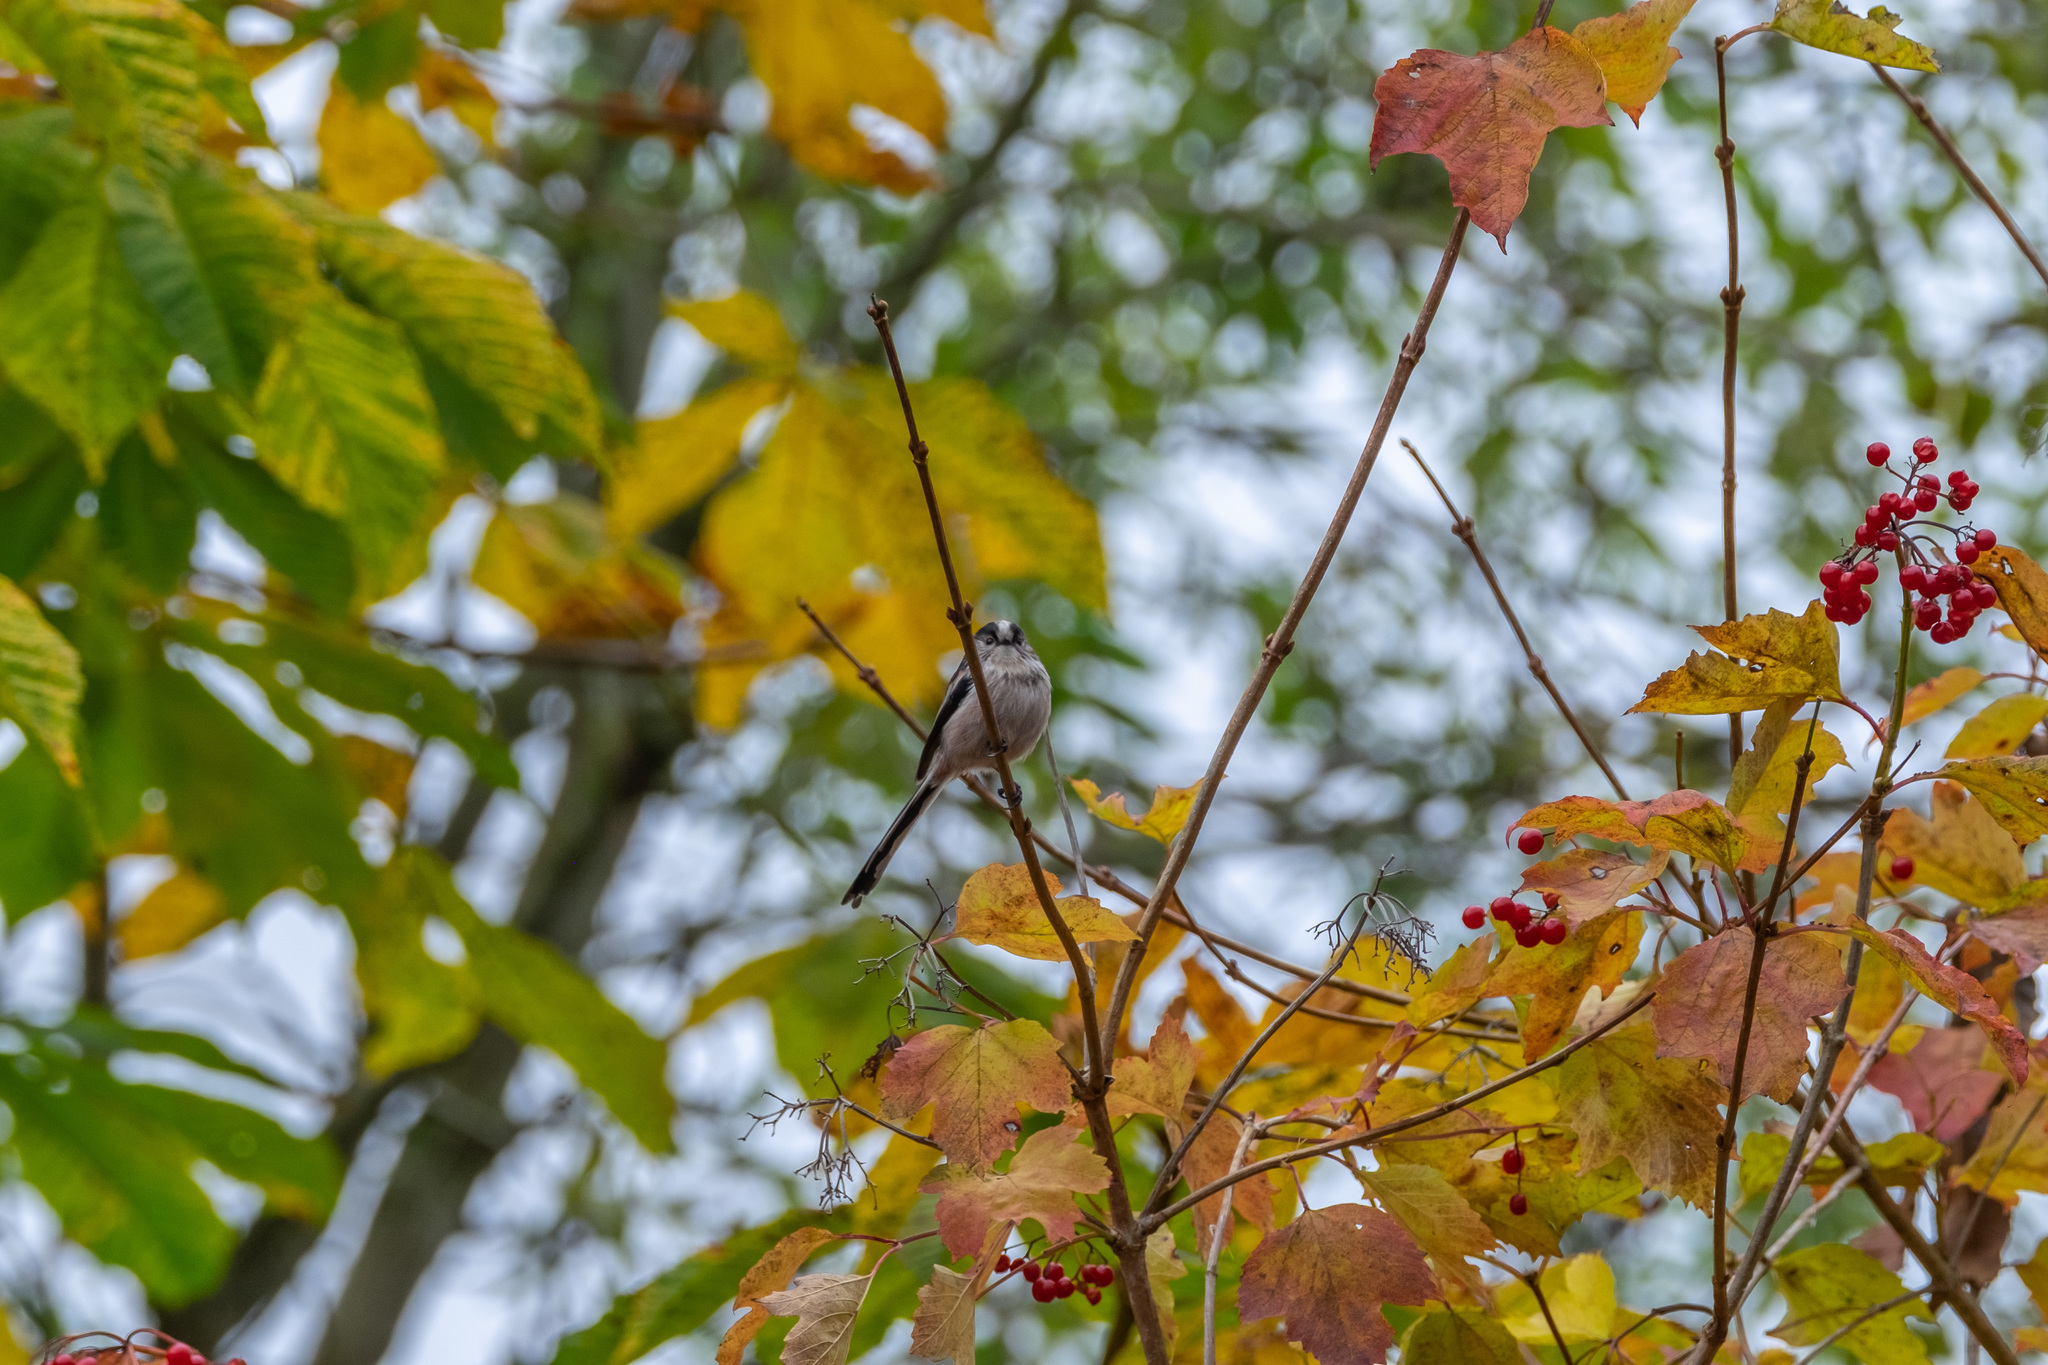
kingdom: Animalia
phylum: Chordata
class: Aves
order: Passeriformes
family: Aegithalidae
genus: Aegithalos
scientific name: Aegithalos caudatus
